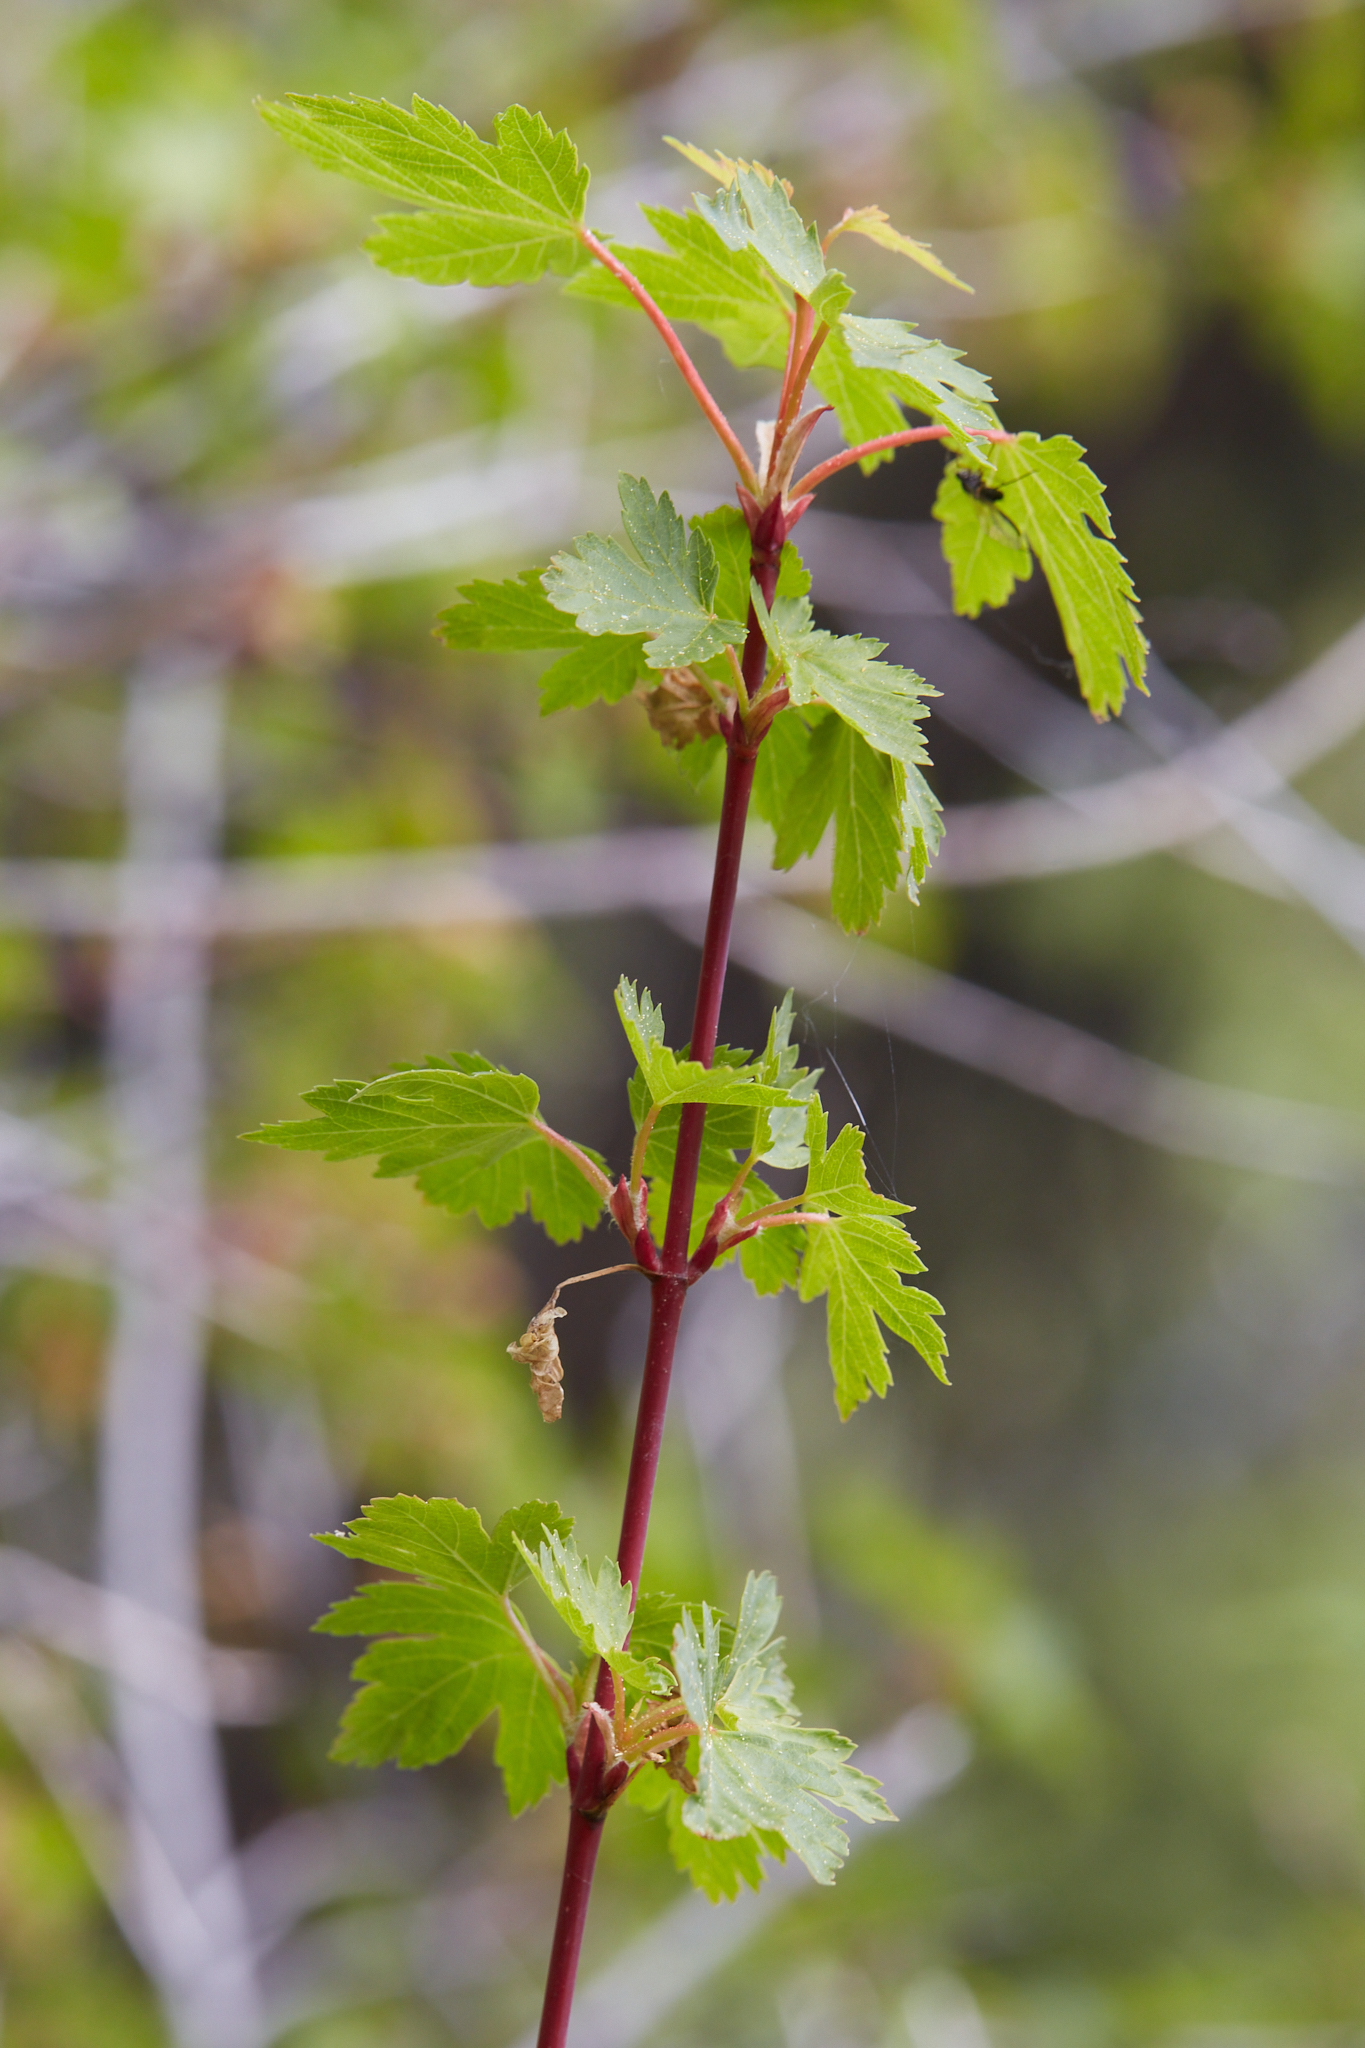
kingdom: Plantae
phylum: Tracheophyta
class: Magnoliopsida
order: Sapindales
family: Sapindaceae
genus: Acer
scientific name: Acer glabrum
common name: Rocky mountain maple
